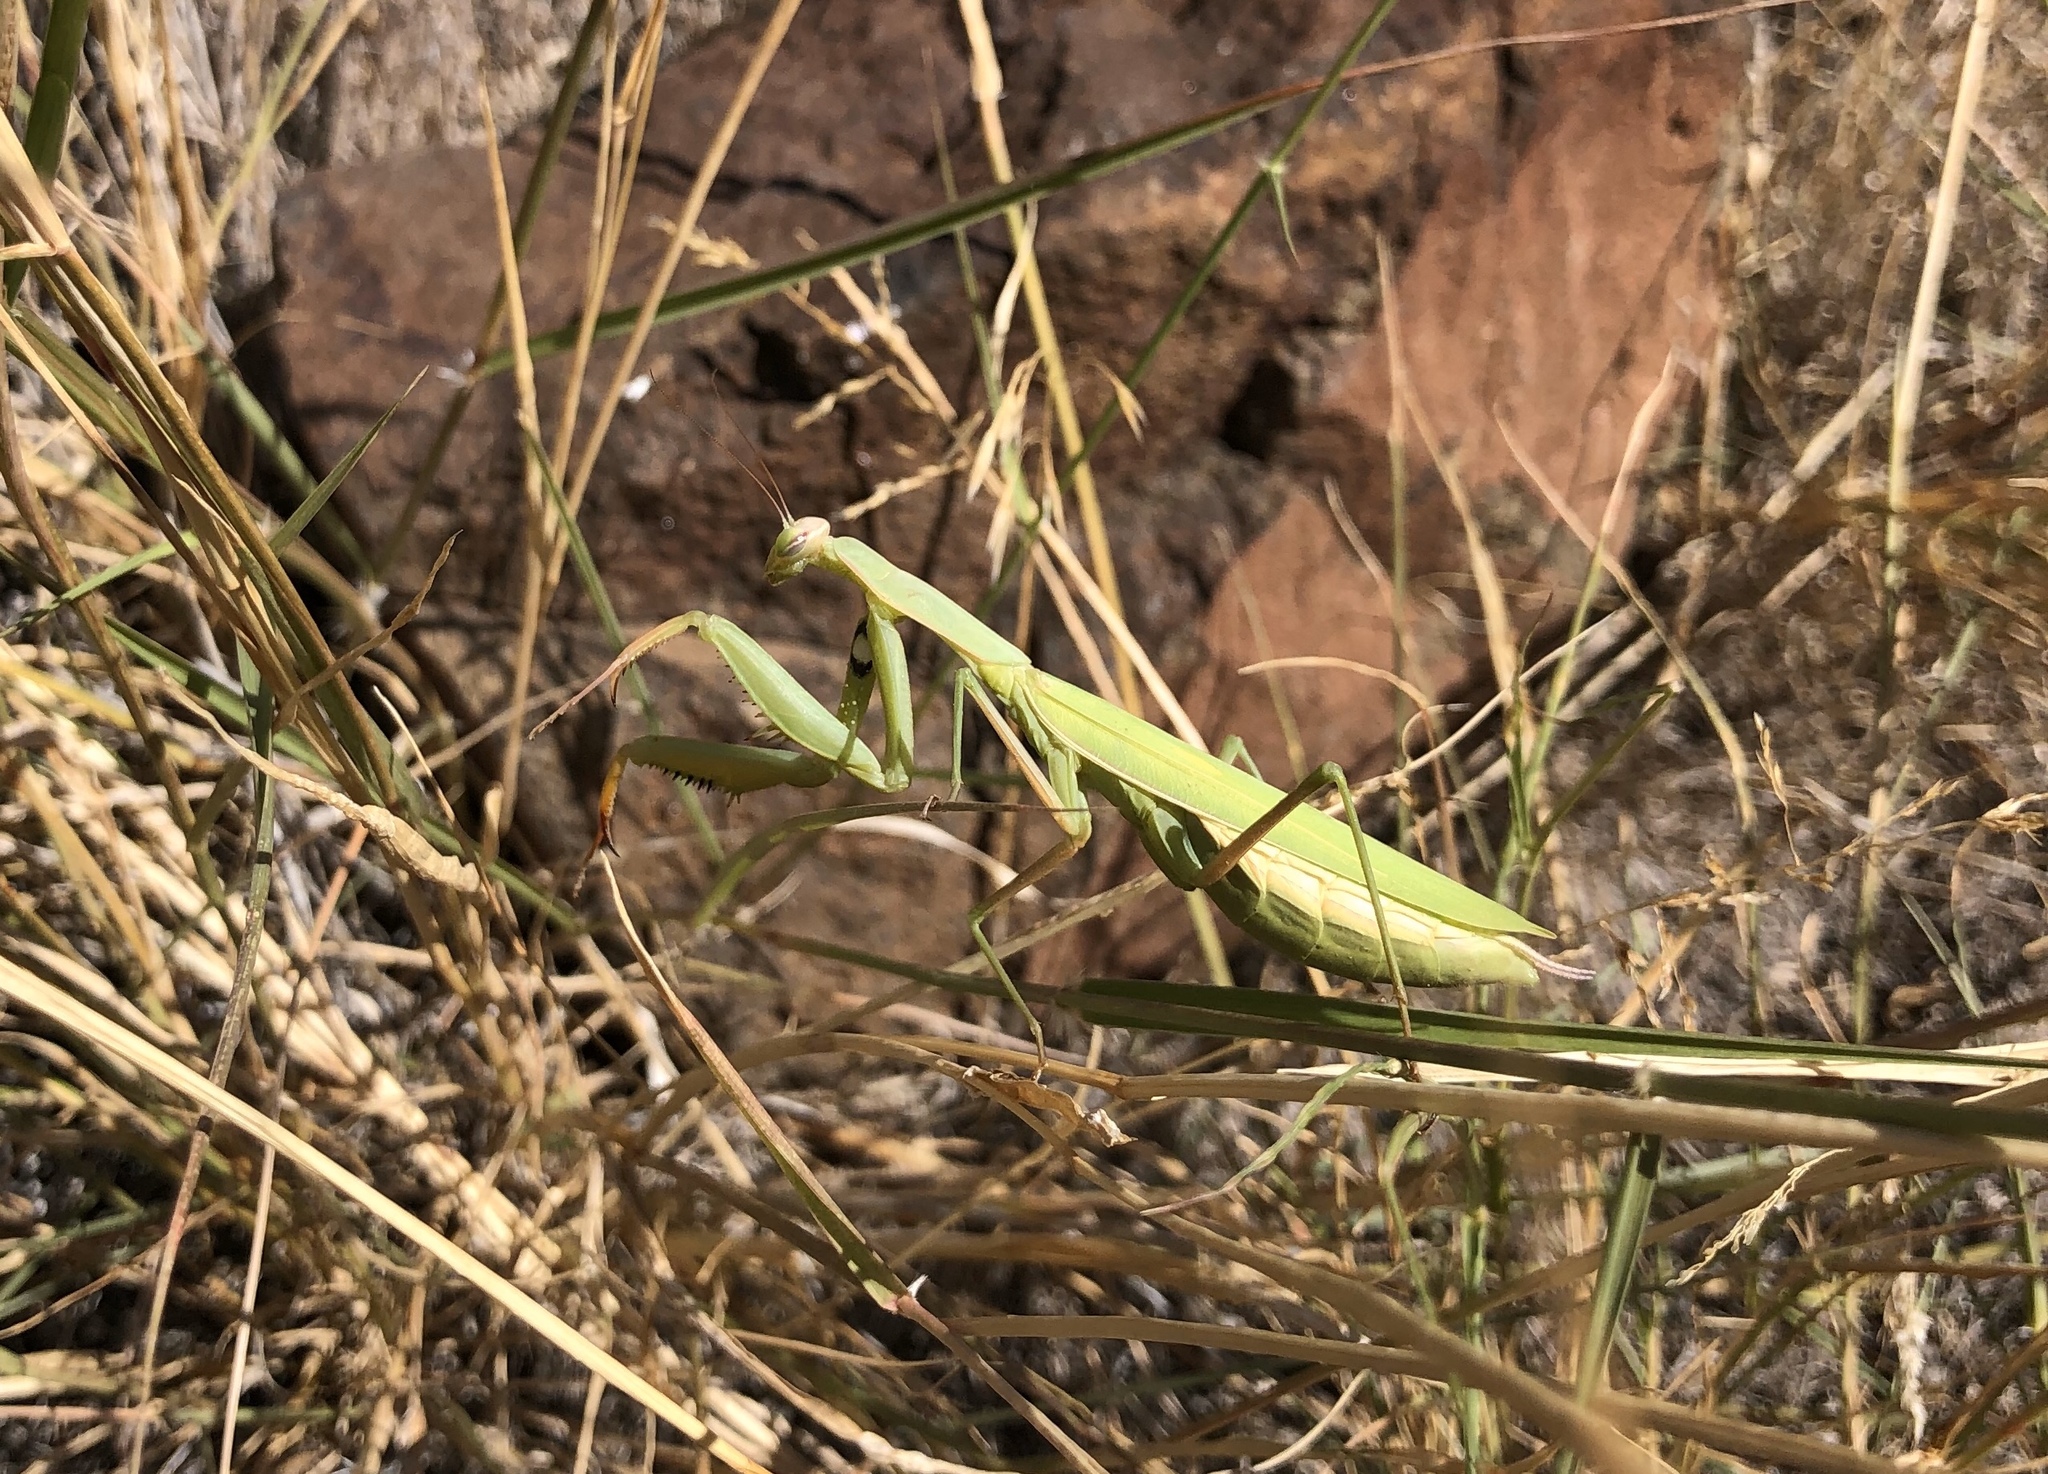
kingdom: Animalia
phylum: Arthropoda
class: Insecta
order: Mantodea
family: Mantidae
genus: Mantis
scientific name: Mantis religiosa
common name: Praying mantis
